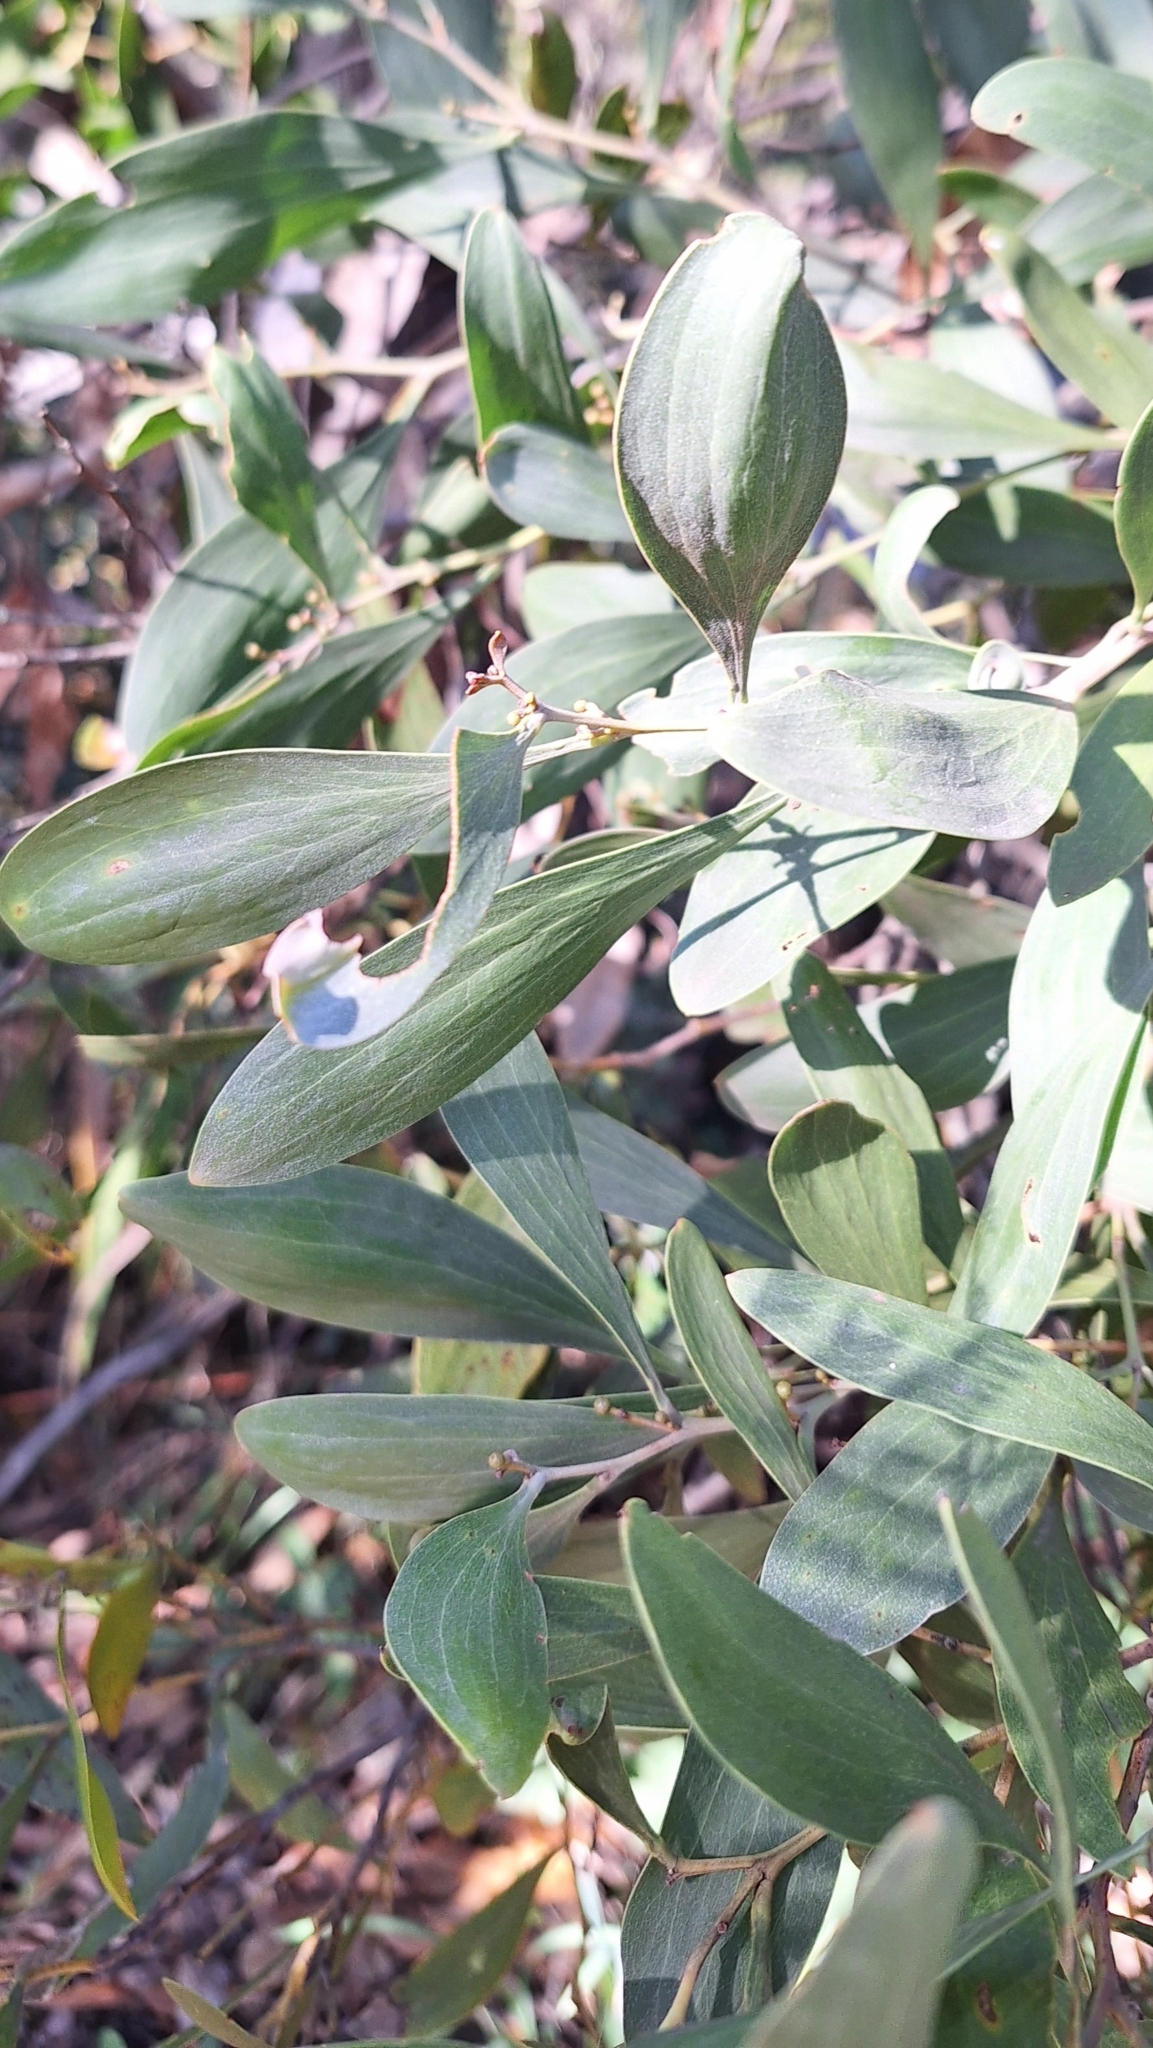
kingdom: Plantae
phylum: Tracheophyta
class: Magnoliopsida
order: Fabales
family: Fabaceae
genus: Acacia
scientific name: Acacia melanoxylon
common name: Blackwood
